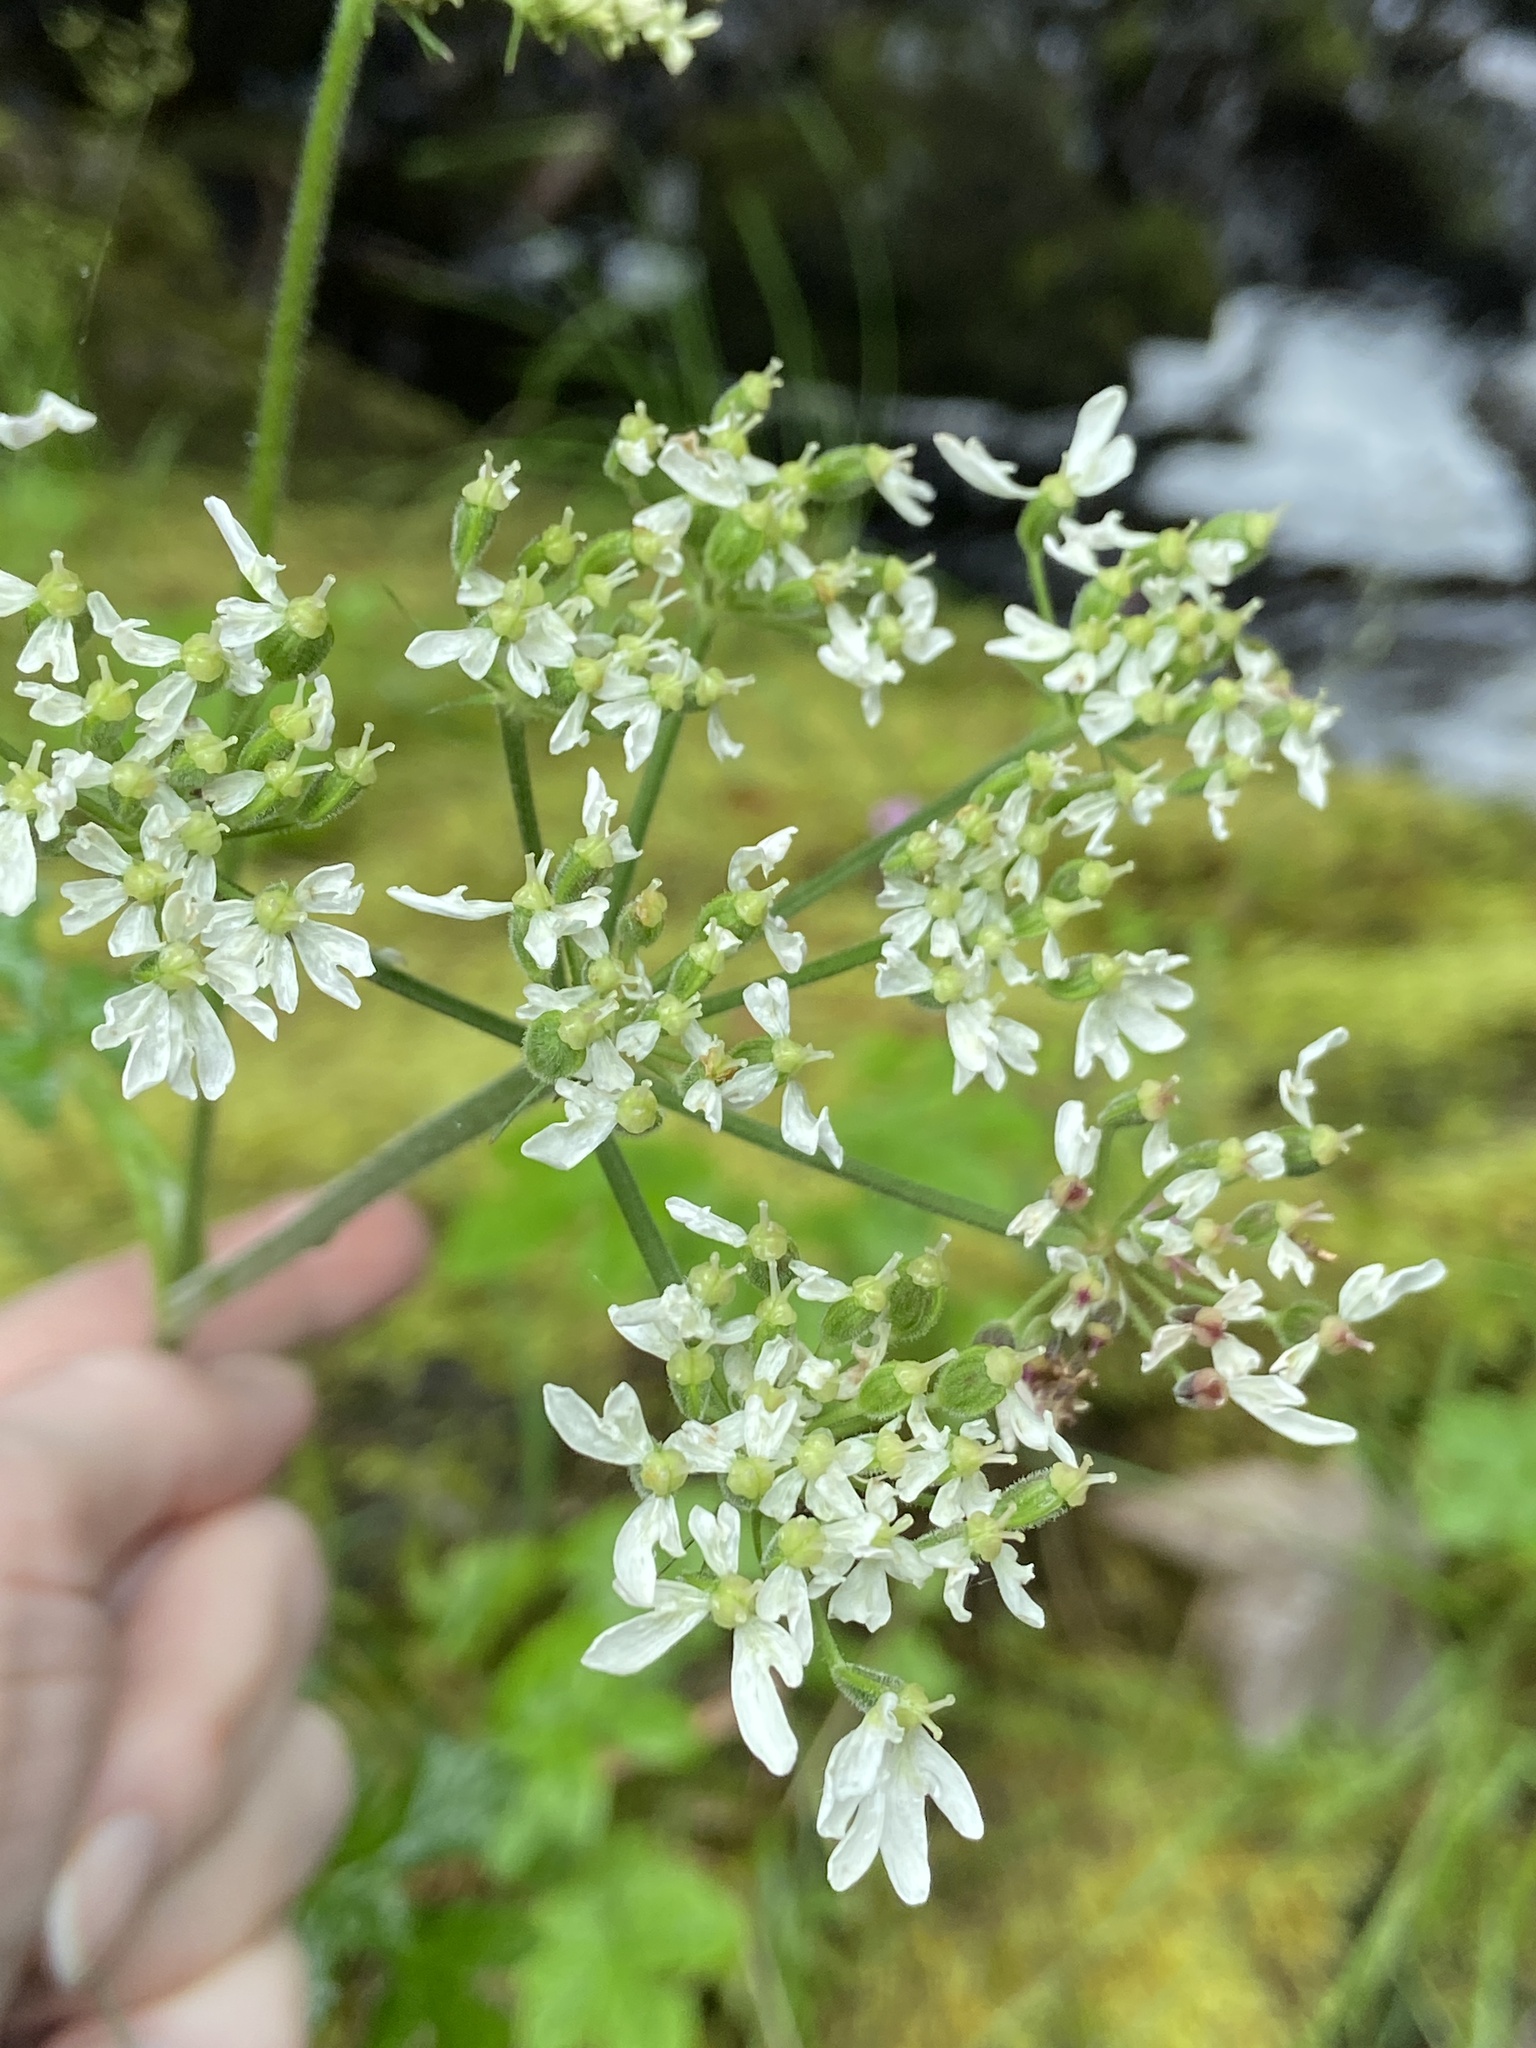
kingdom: Plantae
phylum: Tracheophyta
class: Magnoliopsida
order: Apiales
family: Apiaceae
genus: Heracleum
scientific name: Heracleum sphondylium
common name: Hogweed
